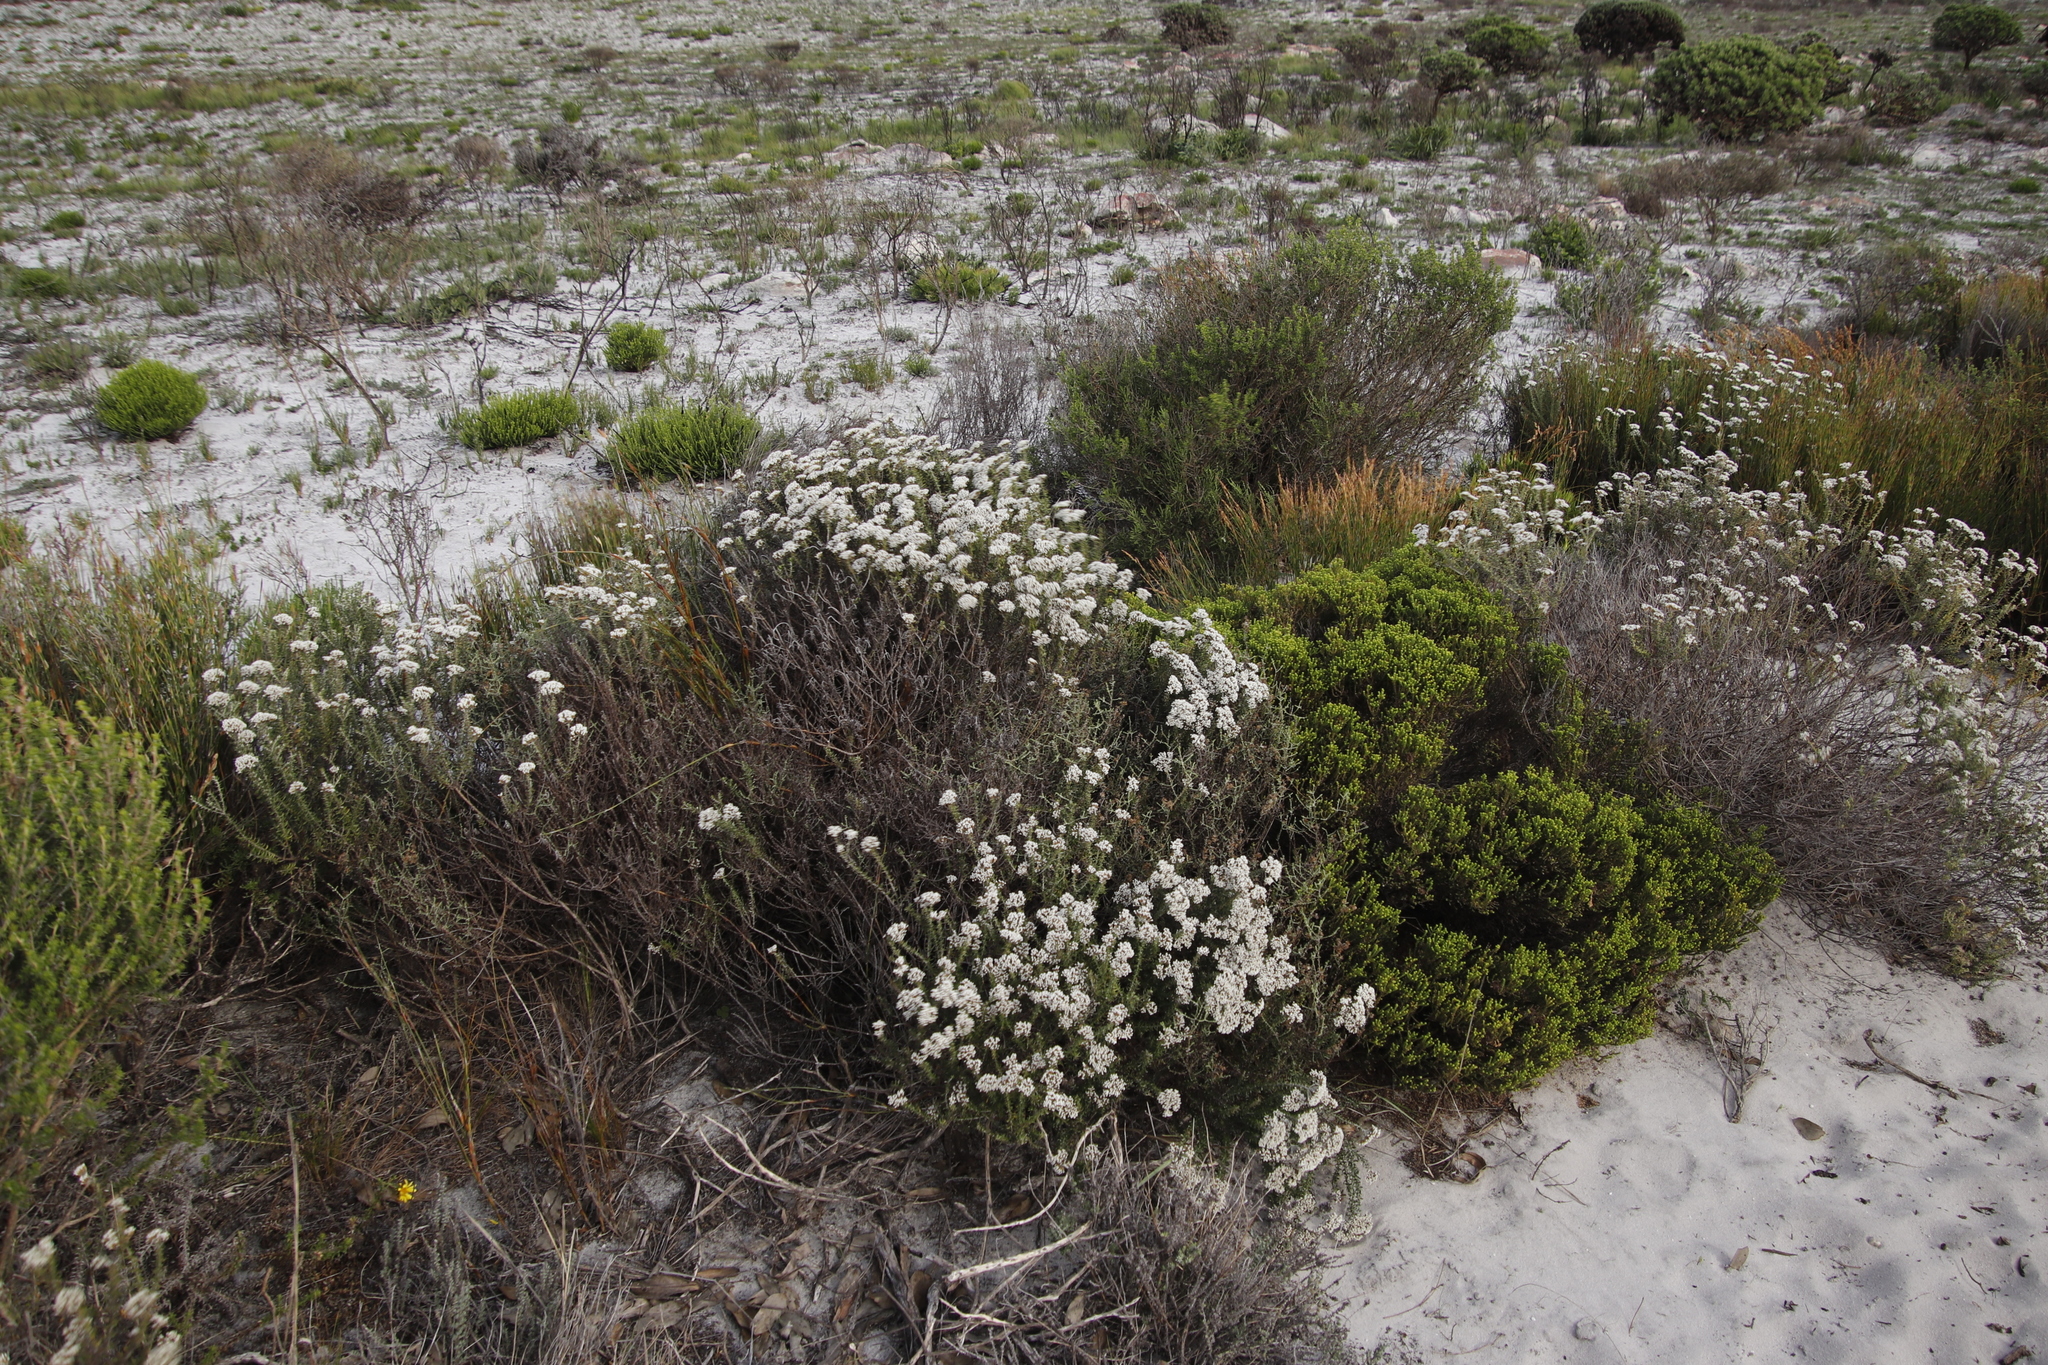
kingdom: Plantae
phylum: Tracheophyta
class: Magnoliopsida
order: Asterales
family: Asteraceae
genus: Metalasia
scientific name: Metalasia densa
